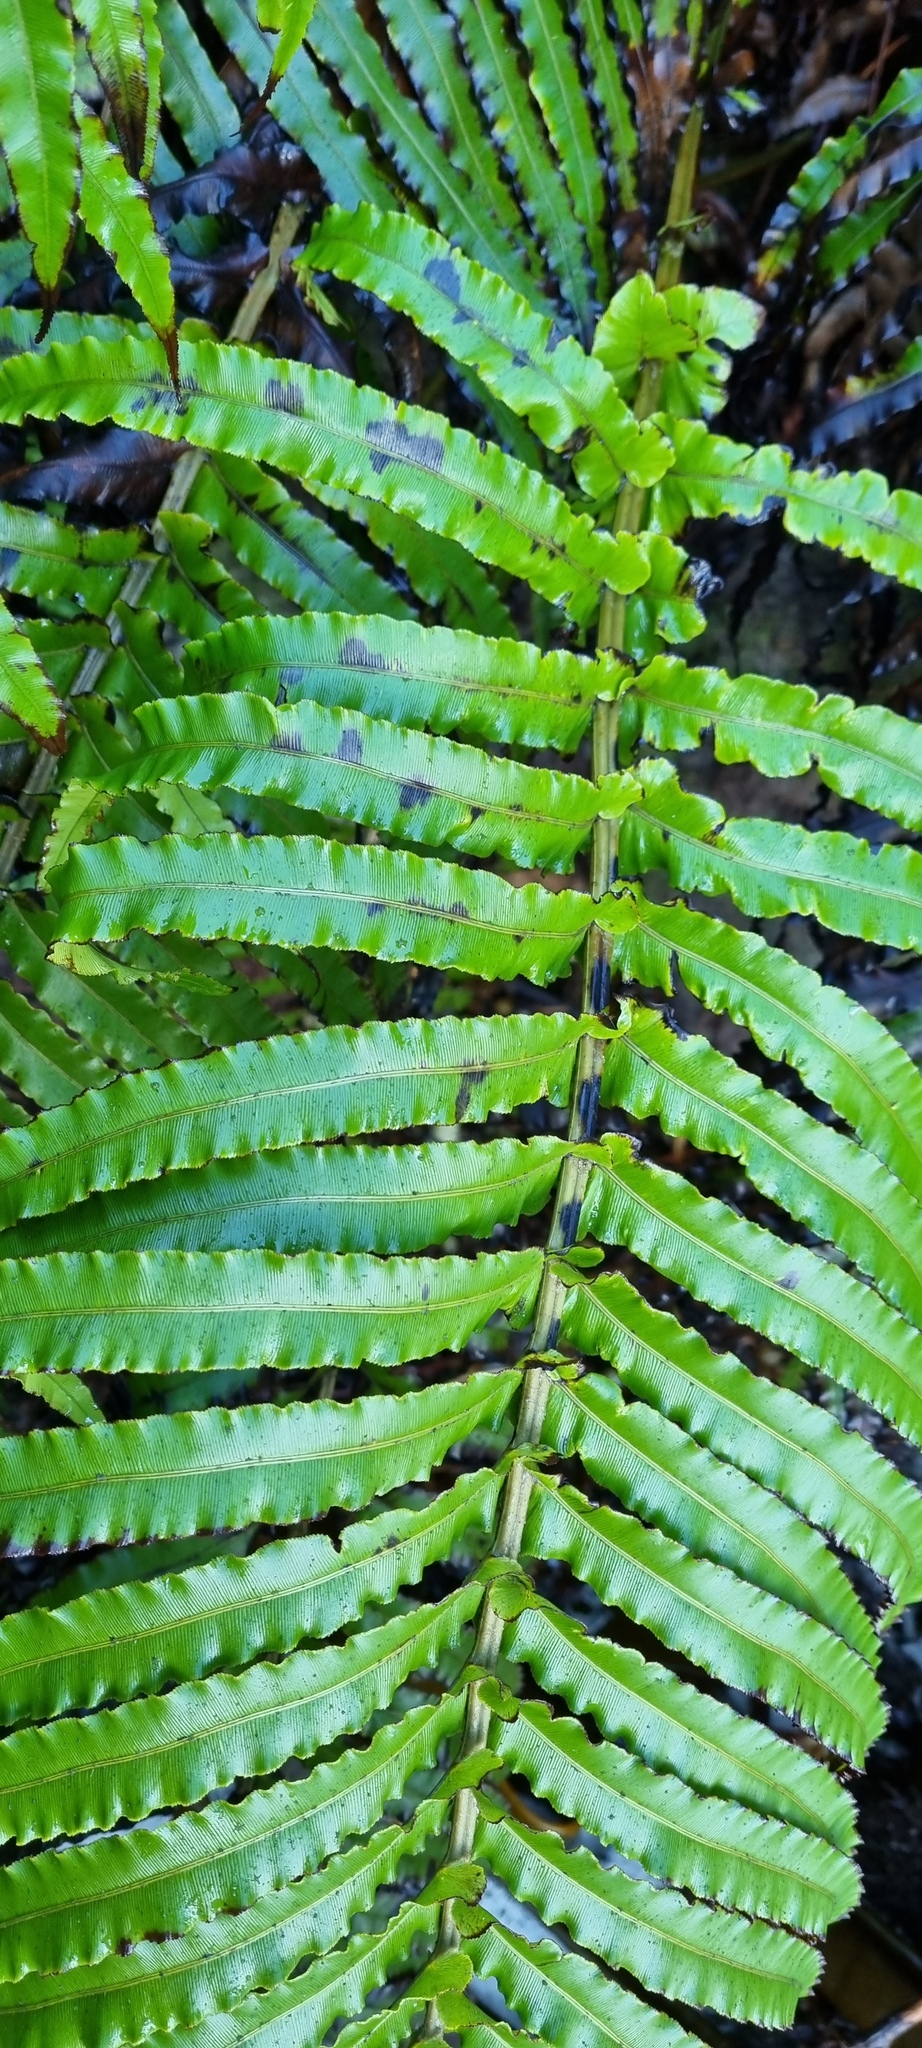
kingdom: Plantae
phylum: Tracheophyta
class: Polypodiopsida
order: Polypodiales
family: Blechnaceae
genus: Parablechnum
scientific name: Parablechnum novae-zelandiae
